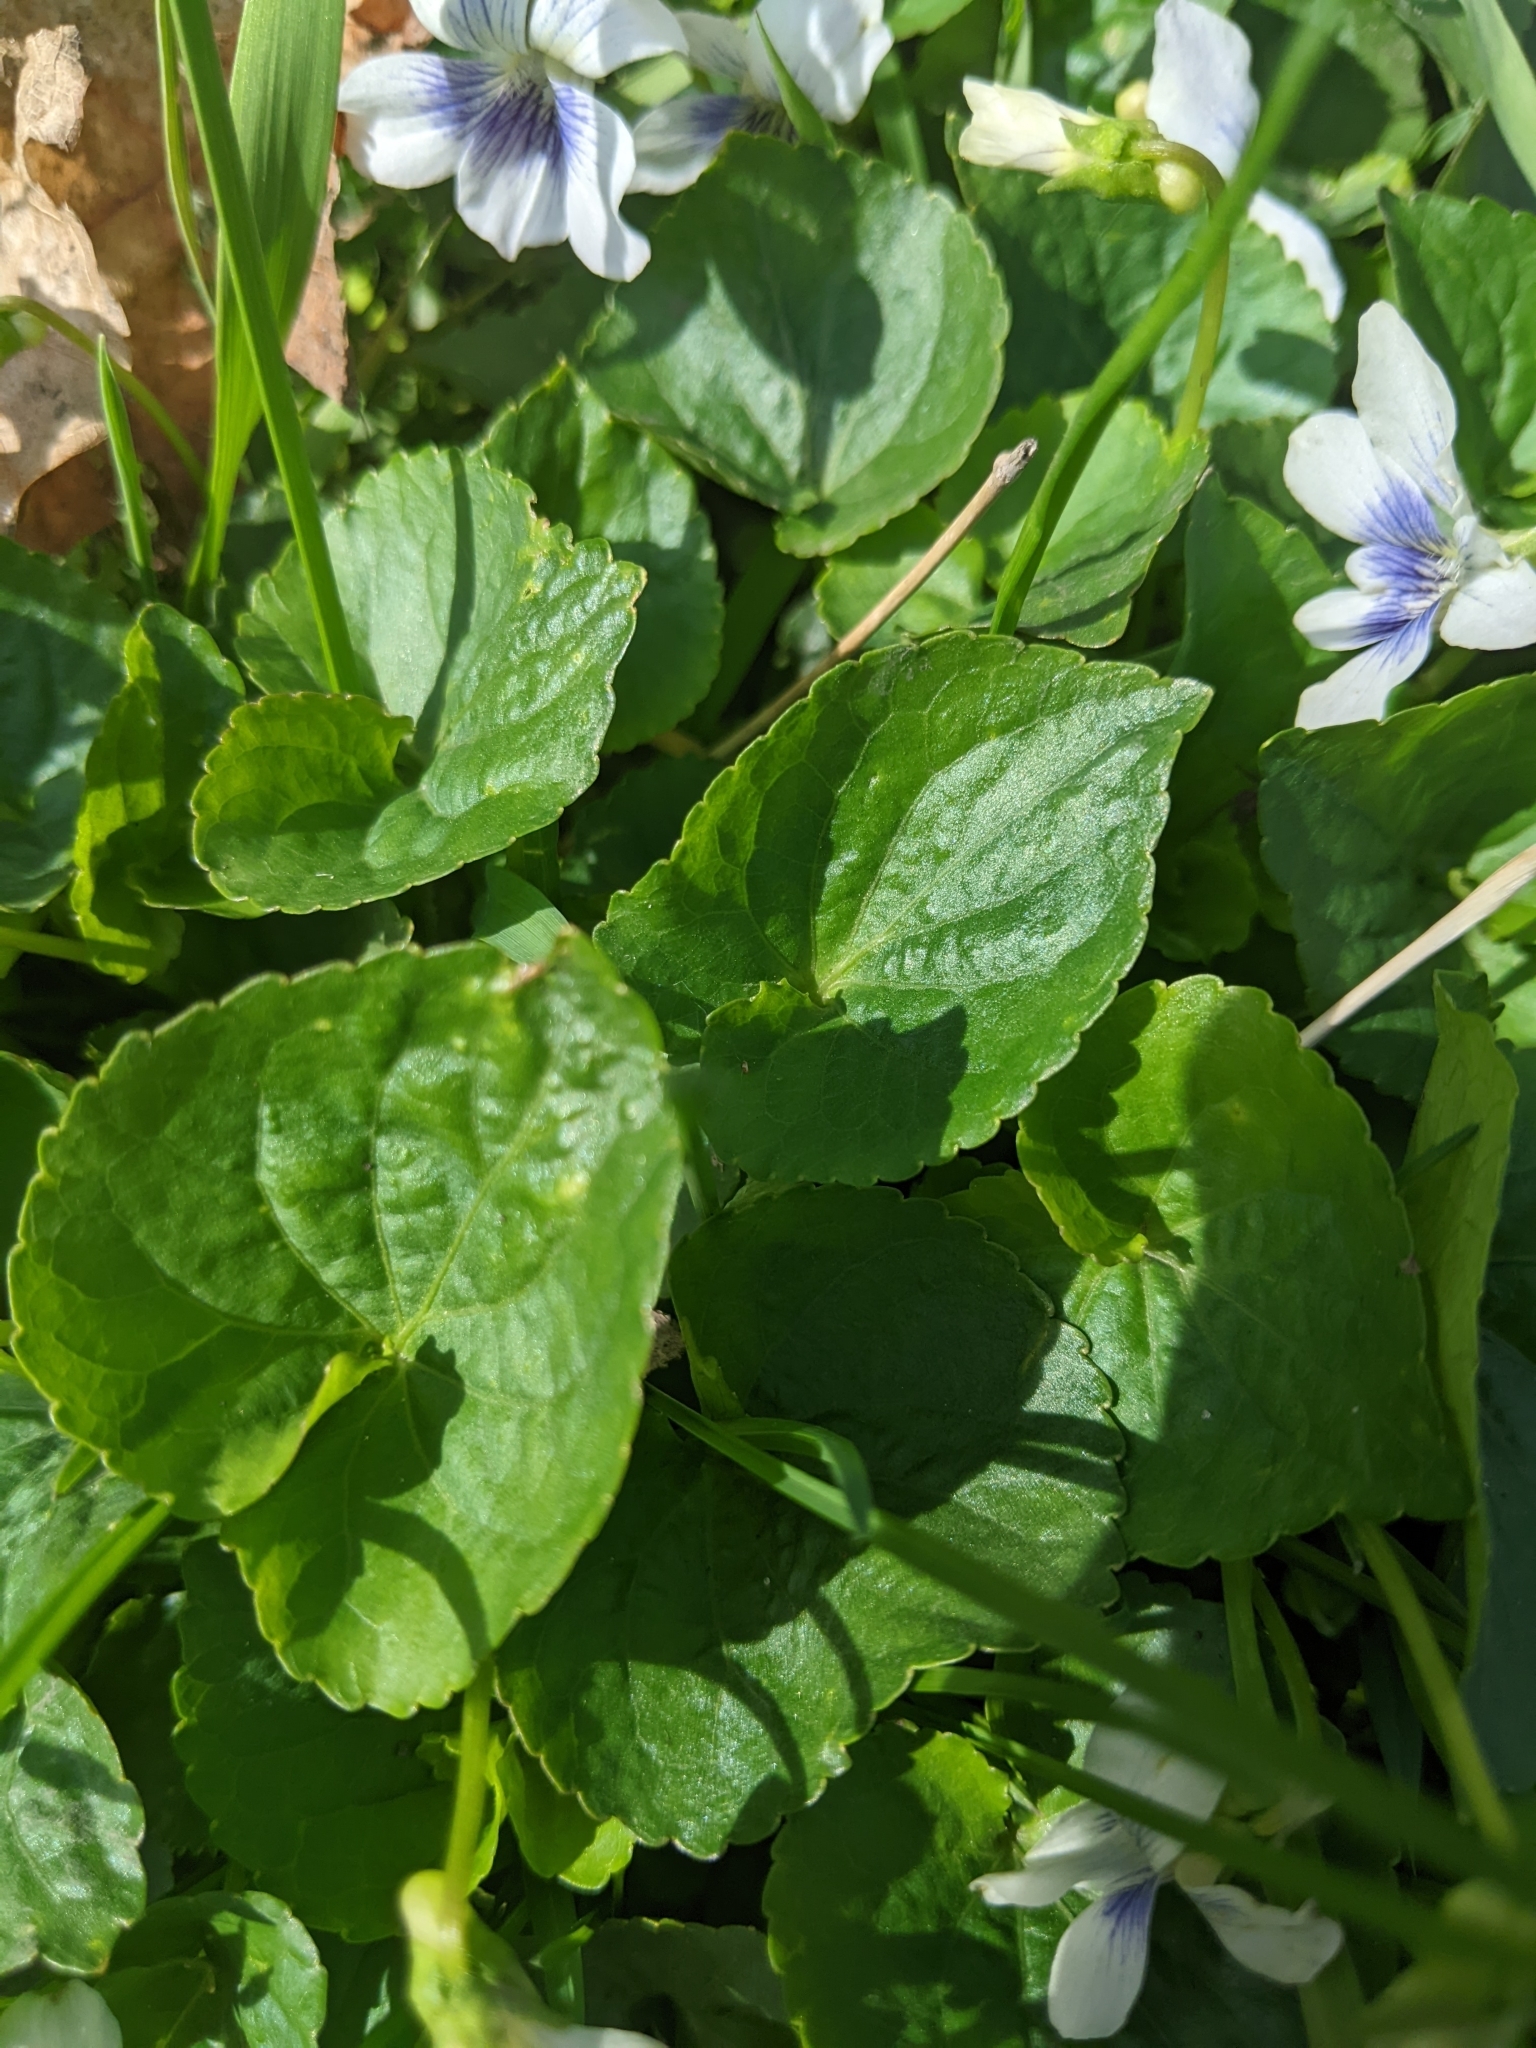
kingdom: Plantae
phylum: Tracheophyta
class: Magnoliopsida
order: Malpighiales
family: Violaceae
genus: Viola
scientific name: Viola sororia
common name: Dooryard violet
